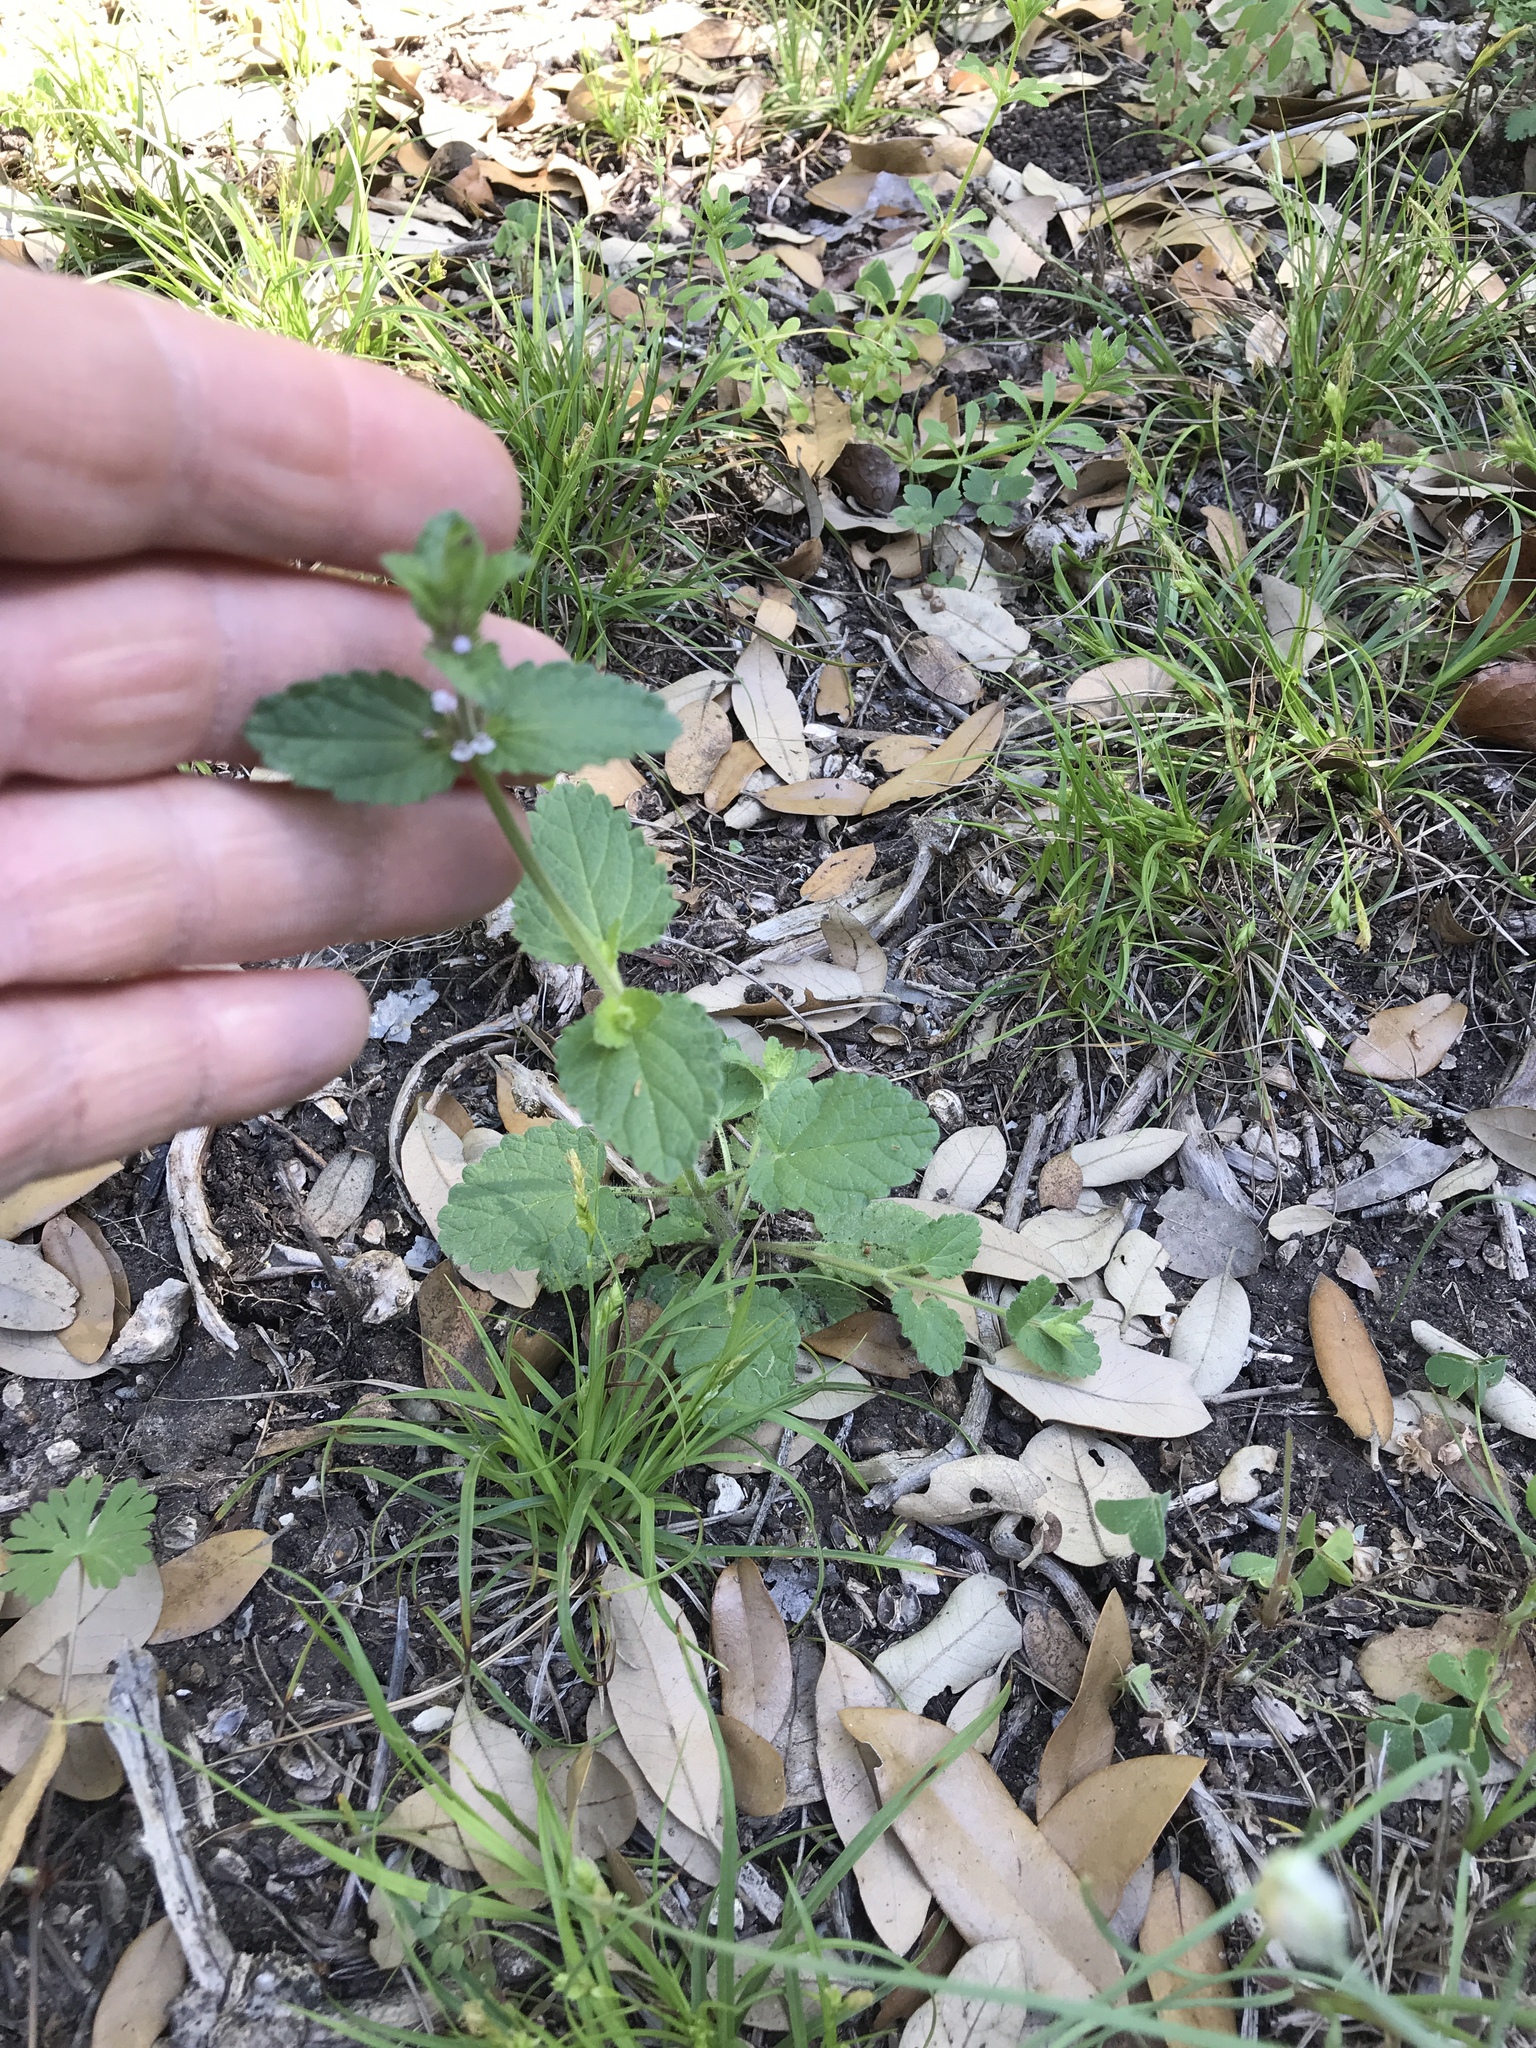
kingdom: Plantae
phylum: Tracheophyta
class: Magnoliopsida
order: Lamiales
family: Lamiaceae
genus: Stachys
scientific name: Stachys
